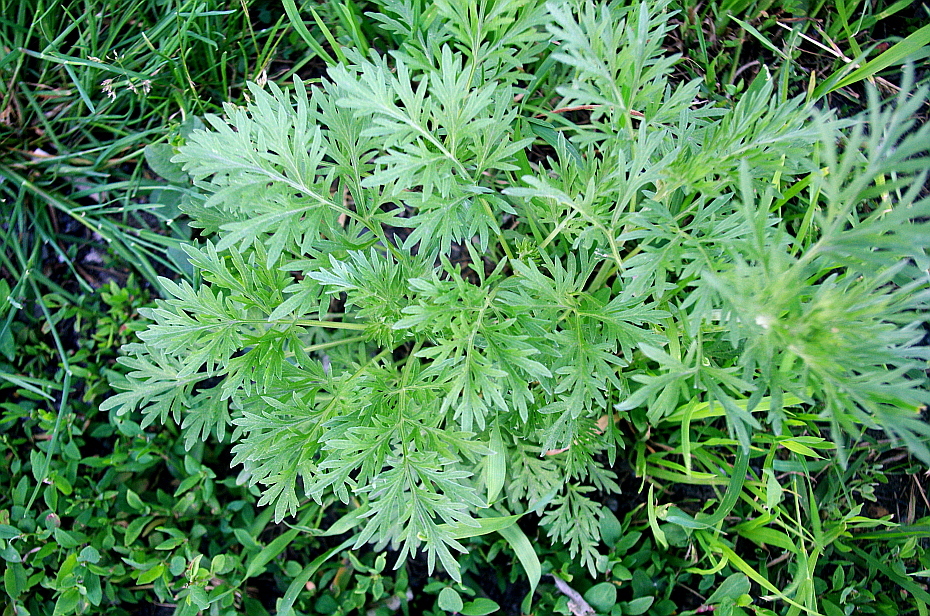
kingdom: Plantae
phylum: Tracheophyta
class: Magnoliopsida
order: Asterales
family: Asteraceae
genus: Artemisia
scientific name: Artemisia absinthium
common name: Wormwood
